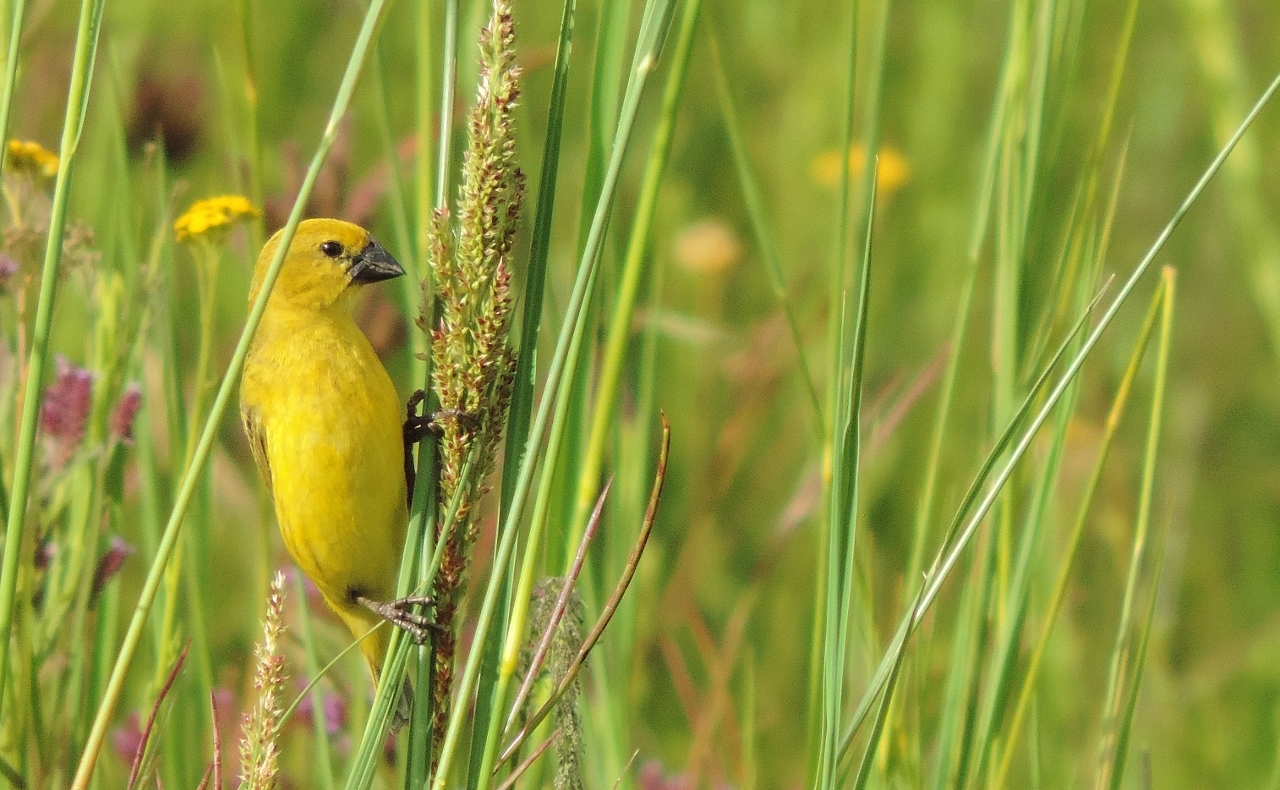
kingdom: Animalia
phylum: Chordata
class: Aves
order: Passeriformes
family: Viduidae
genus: Anomalospiza
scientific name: Anomalospiza imberbis
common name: Cuckoo weaver
